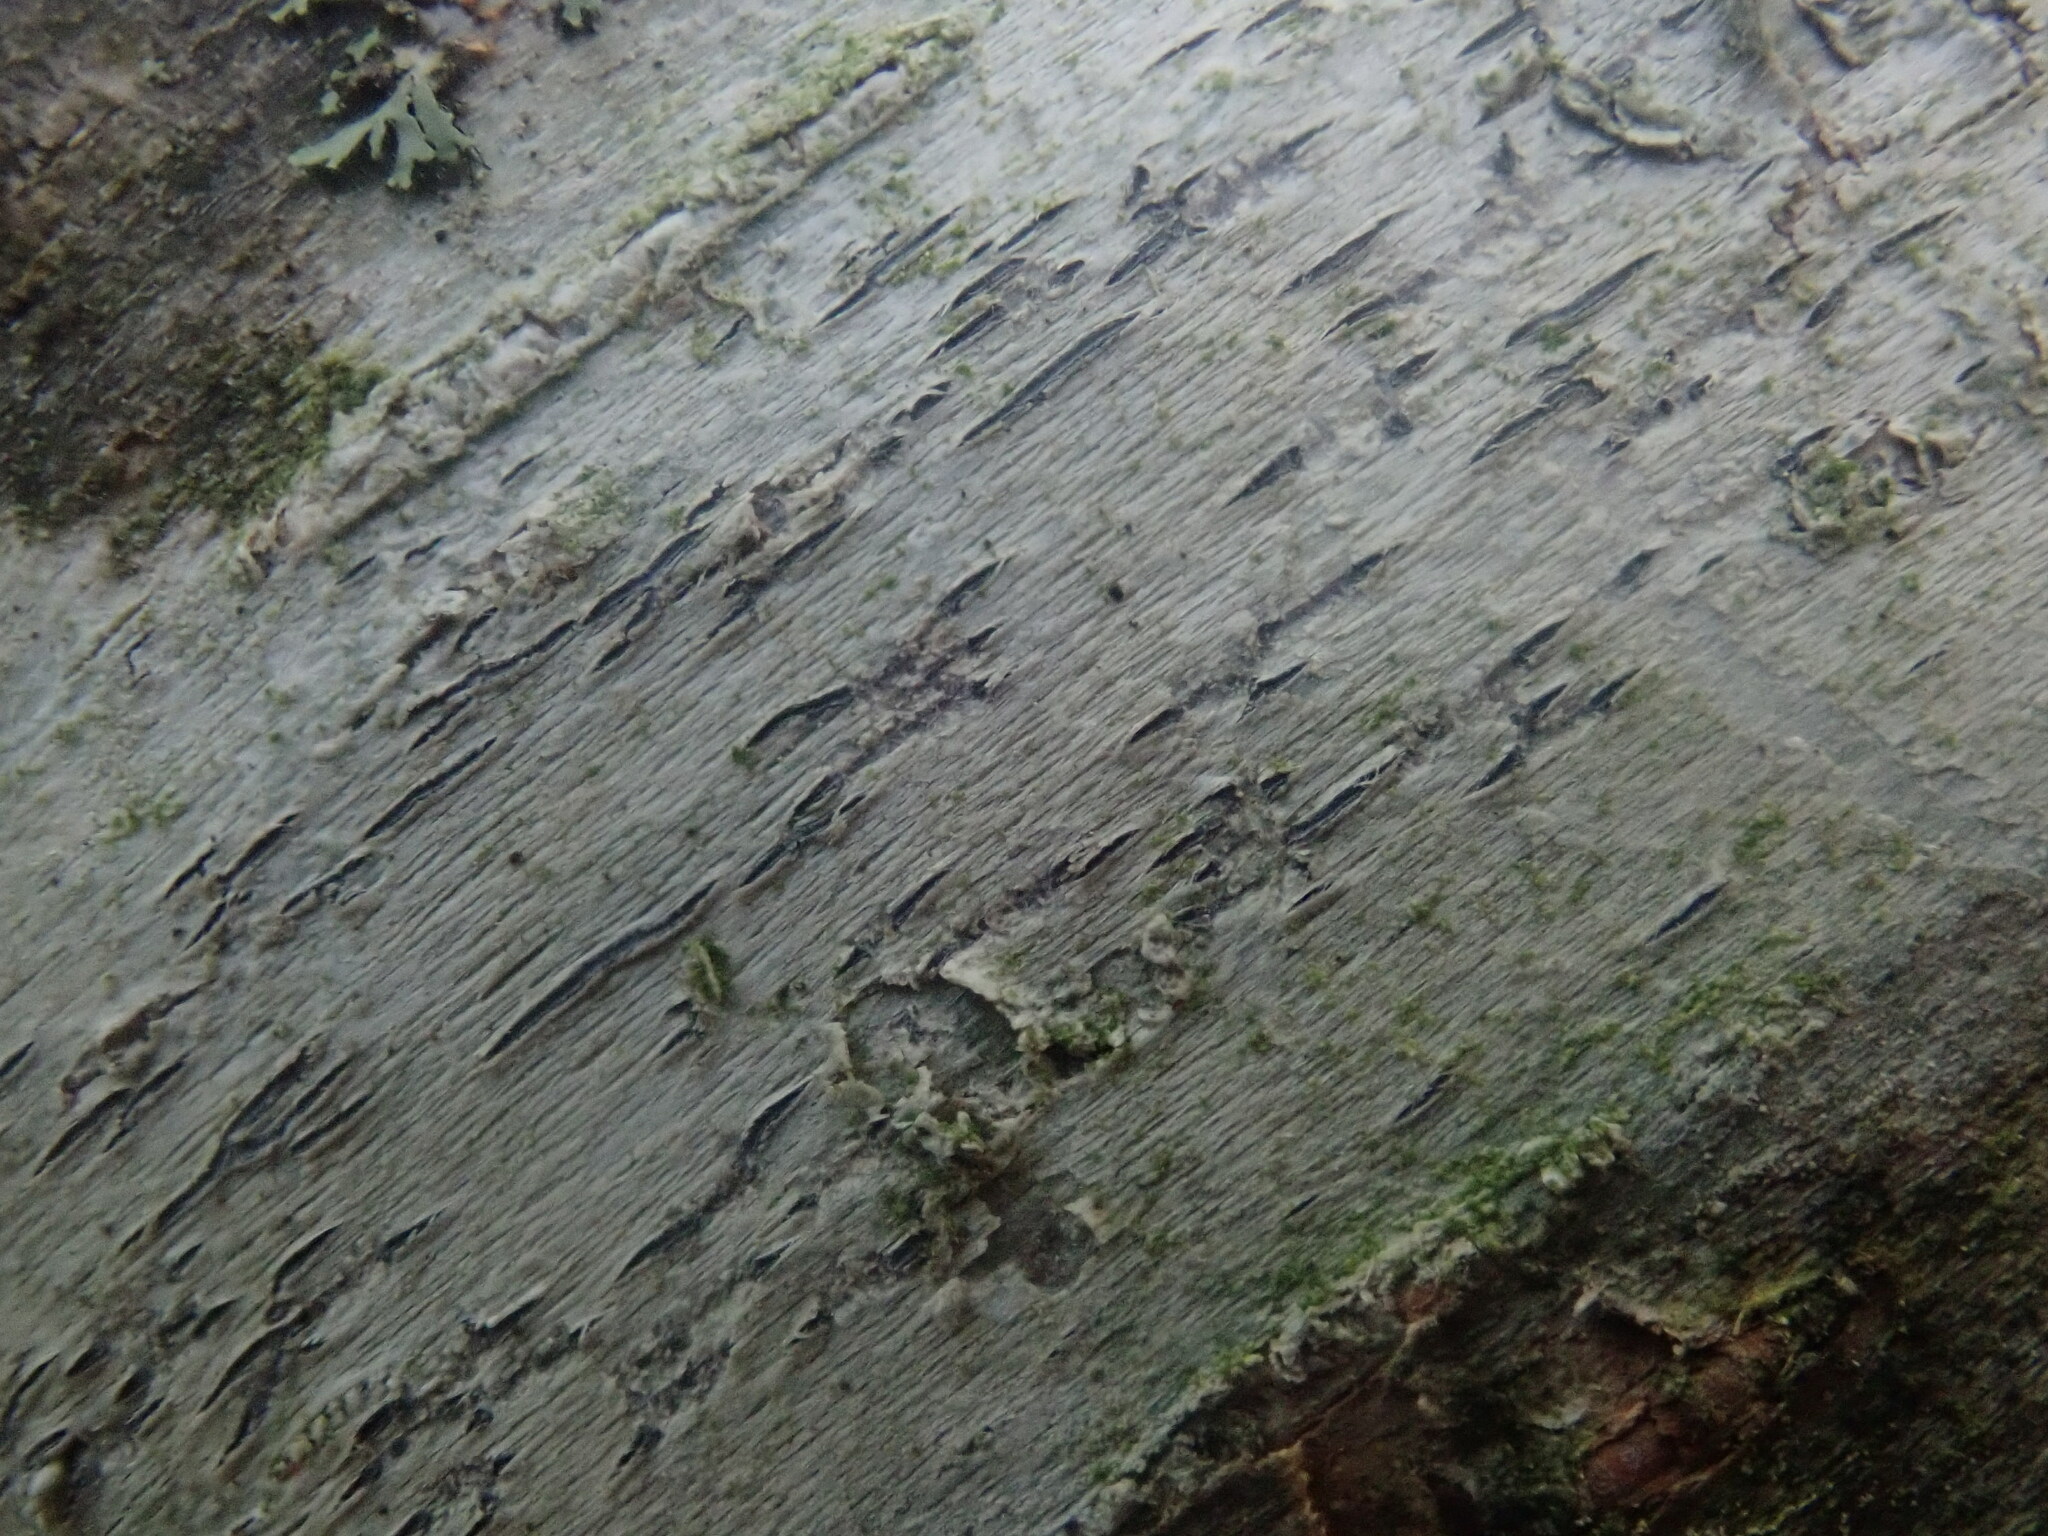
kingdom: Fungi
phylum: Ascomycota
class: Lecanoromycetes
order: Ostropales
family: Graphidaceae
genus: Graphis
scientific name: Graphis scripta
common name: Script lichen
